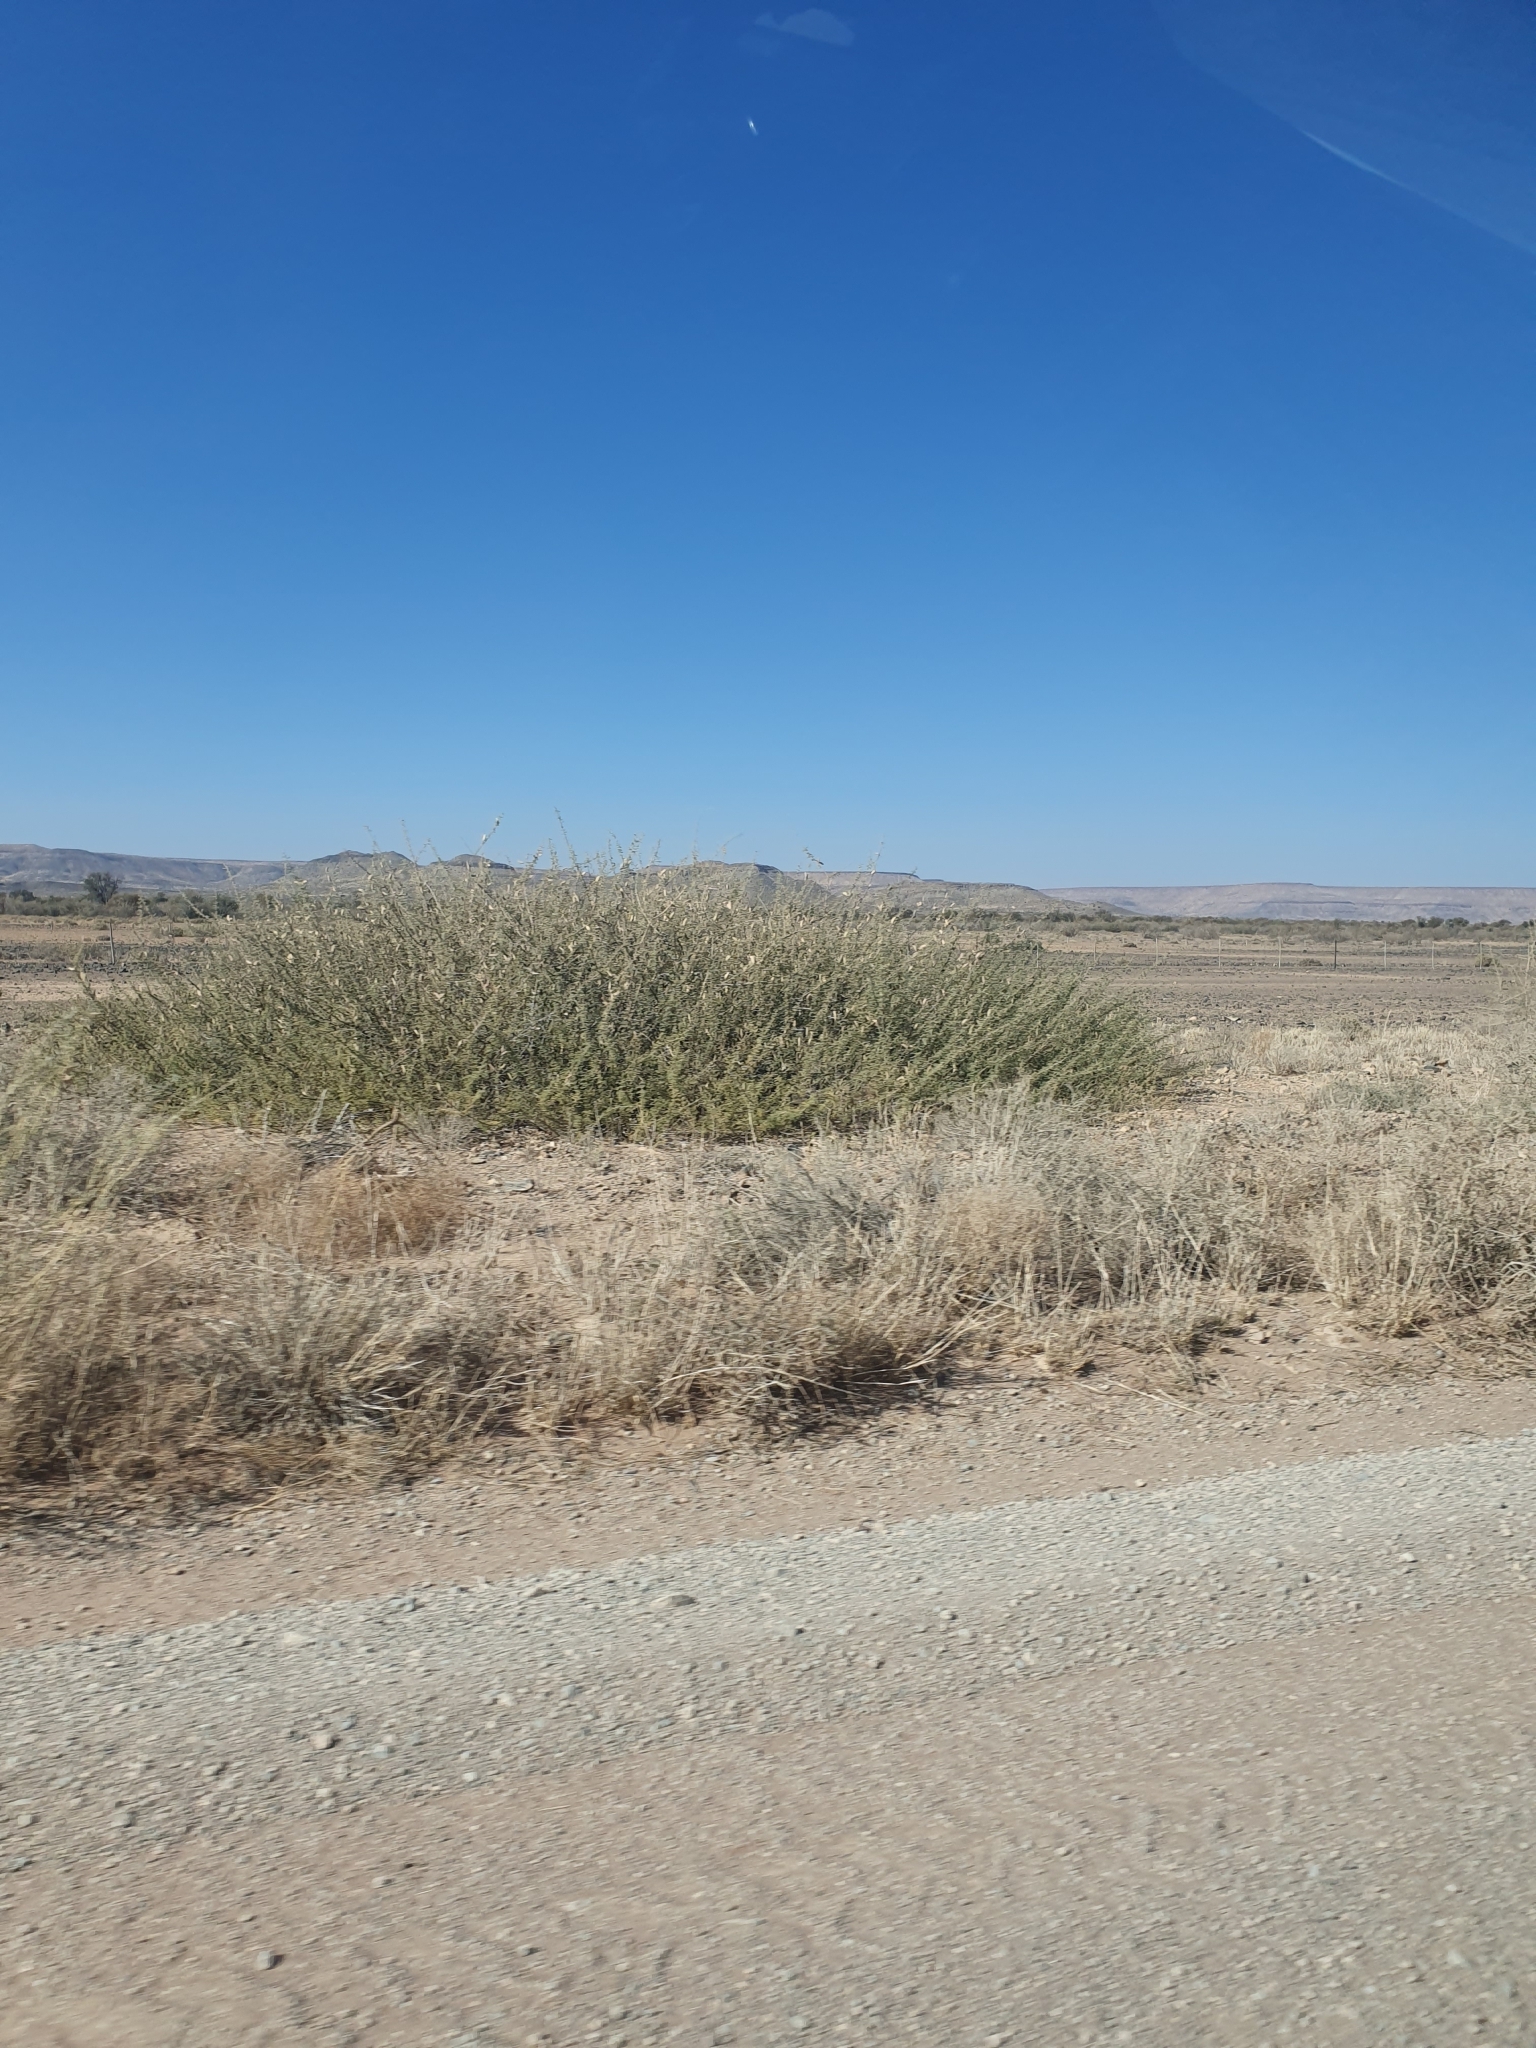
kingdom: Plantae
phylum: Tracheophyta
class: Magnoliopsida
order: Fabales
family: Fabaceae
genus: Vachellia
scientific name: Vachellia hebeclada
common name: Candle thorn
